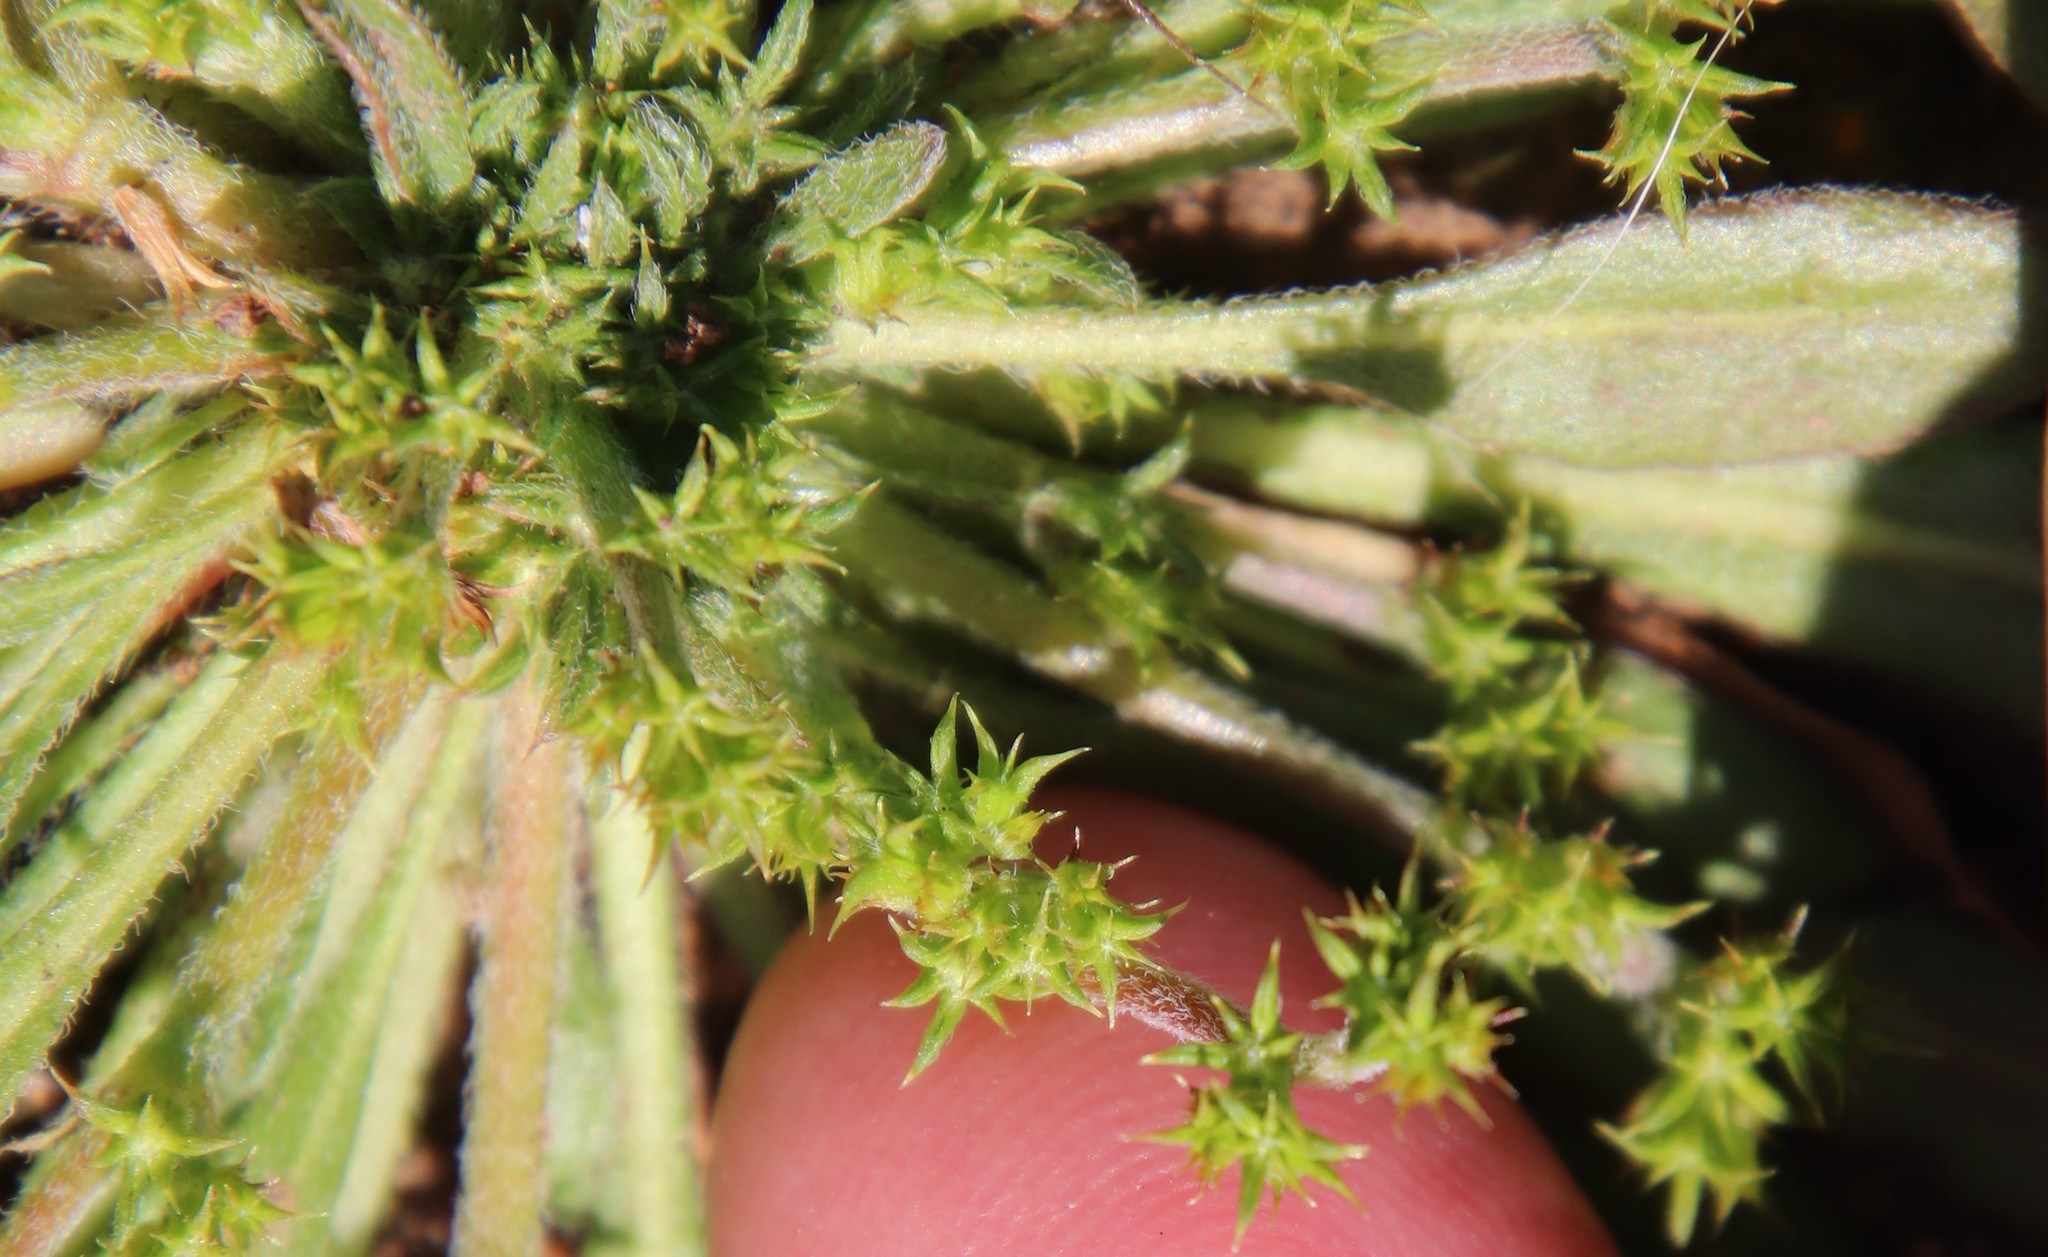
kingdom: Plantae
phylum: Tracheophyta
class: Magnoliopsida
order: Caryophyllales
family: Polygonaceae
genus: Chorizanthe
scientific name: Chorizanthe procumbens
